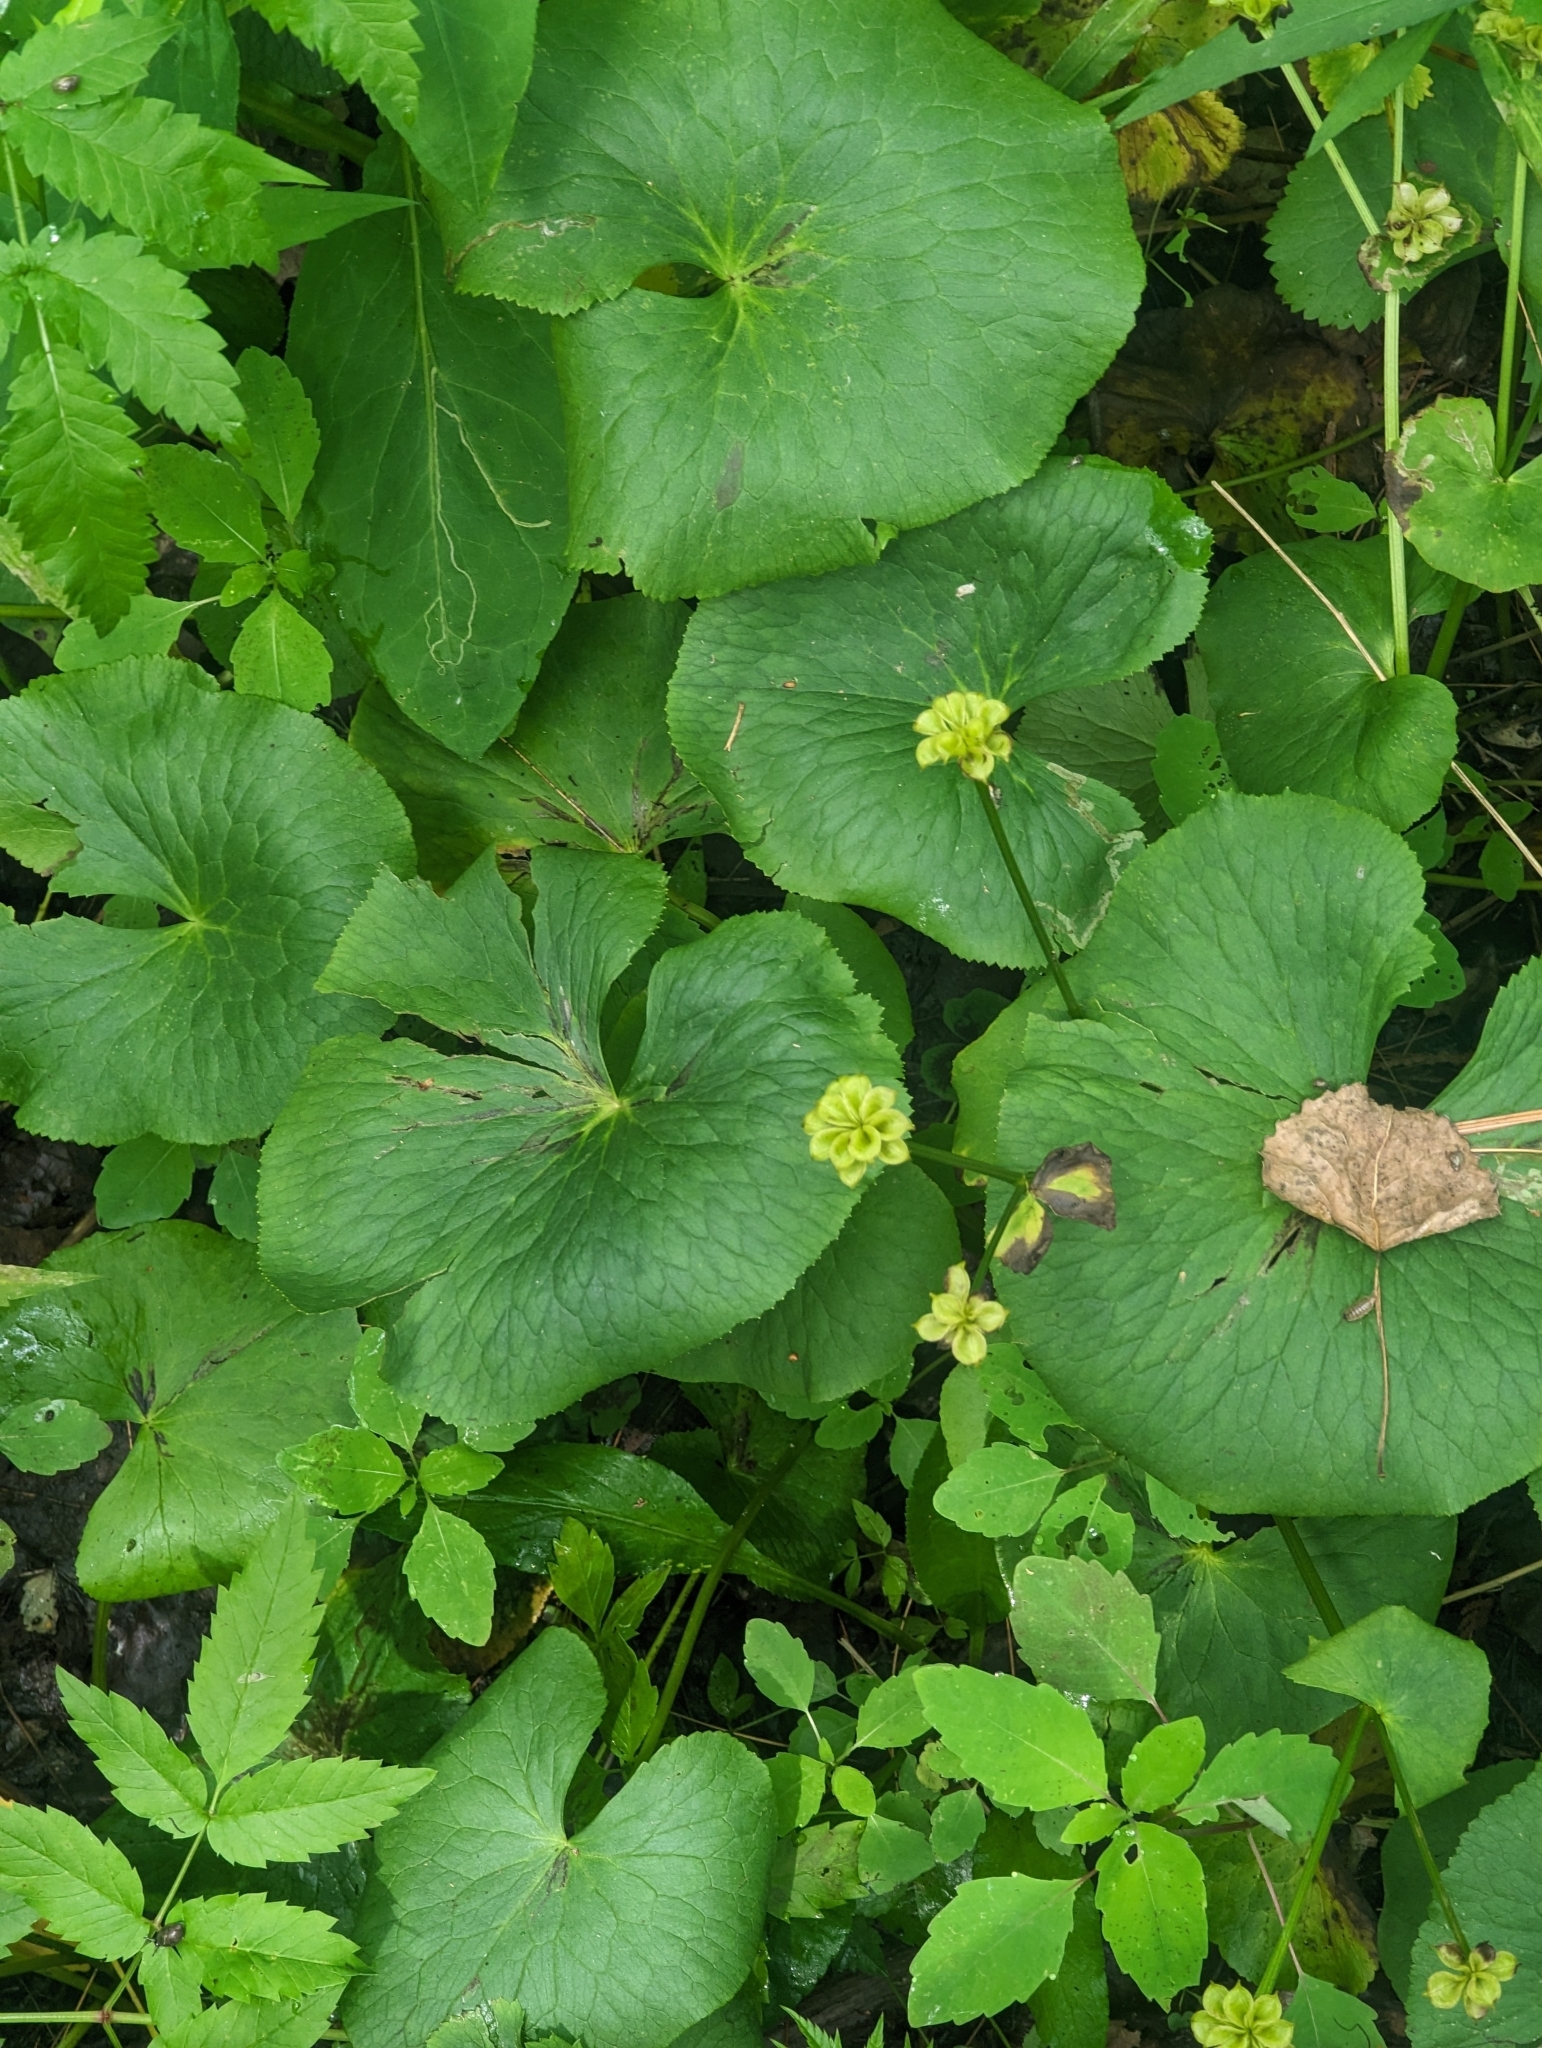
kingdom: Plantae
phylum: Tracheophyta
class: Magnoliopsida
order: Ranunculales
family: Ranunculaceae
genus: Caltha
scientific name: Caltha palustris
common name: Marsh marigold
